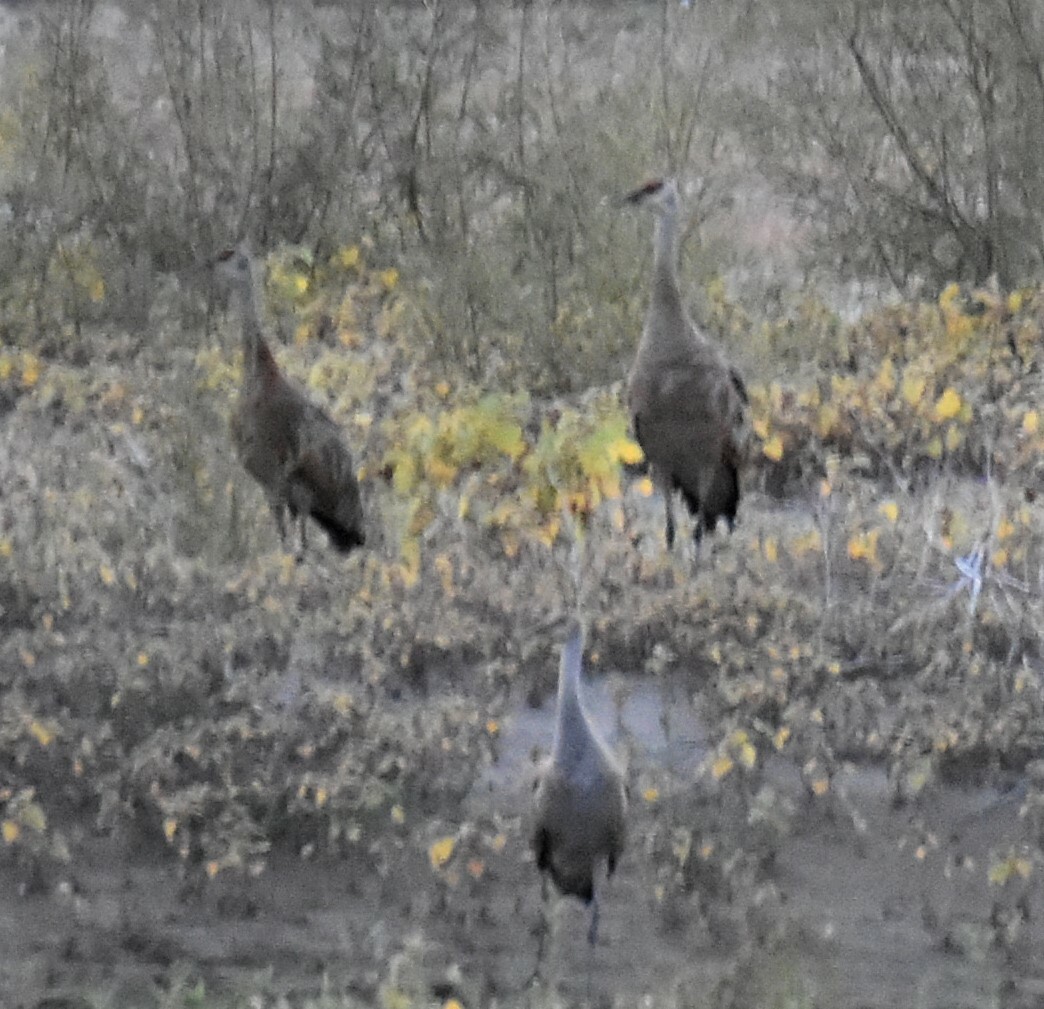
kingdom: Animalia
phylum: Chordata
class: Aves
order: Gruiformes
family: Gruidae
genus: Grus
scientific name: Grus canadensis
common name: Sandhill crane
